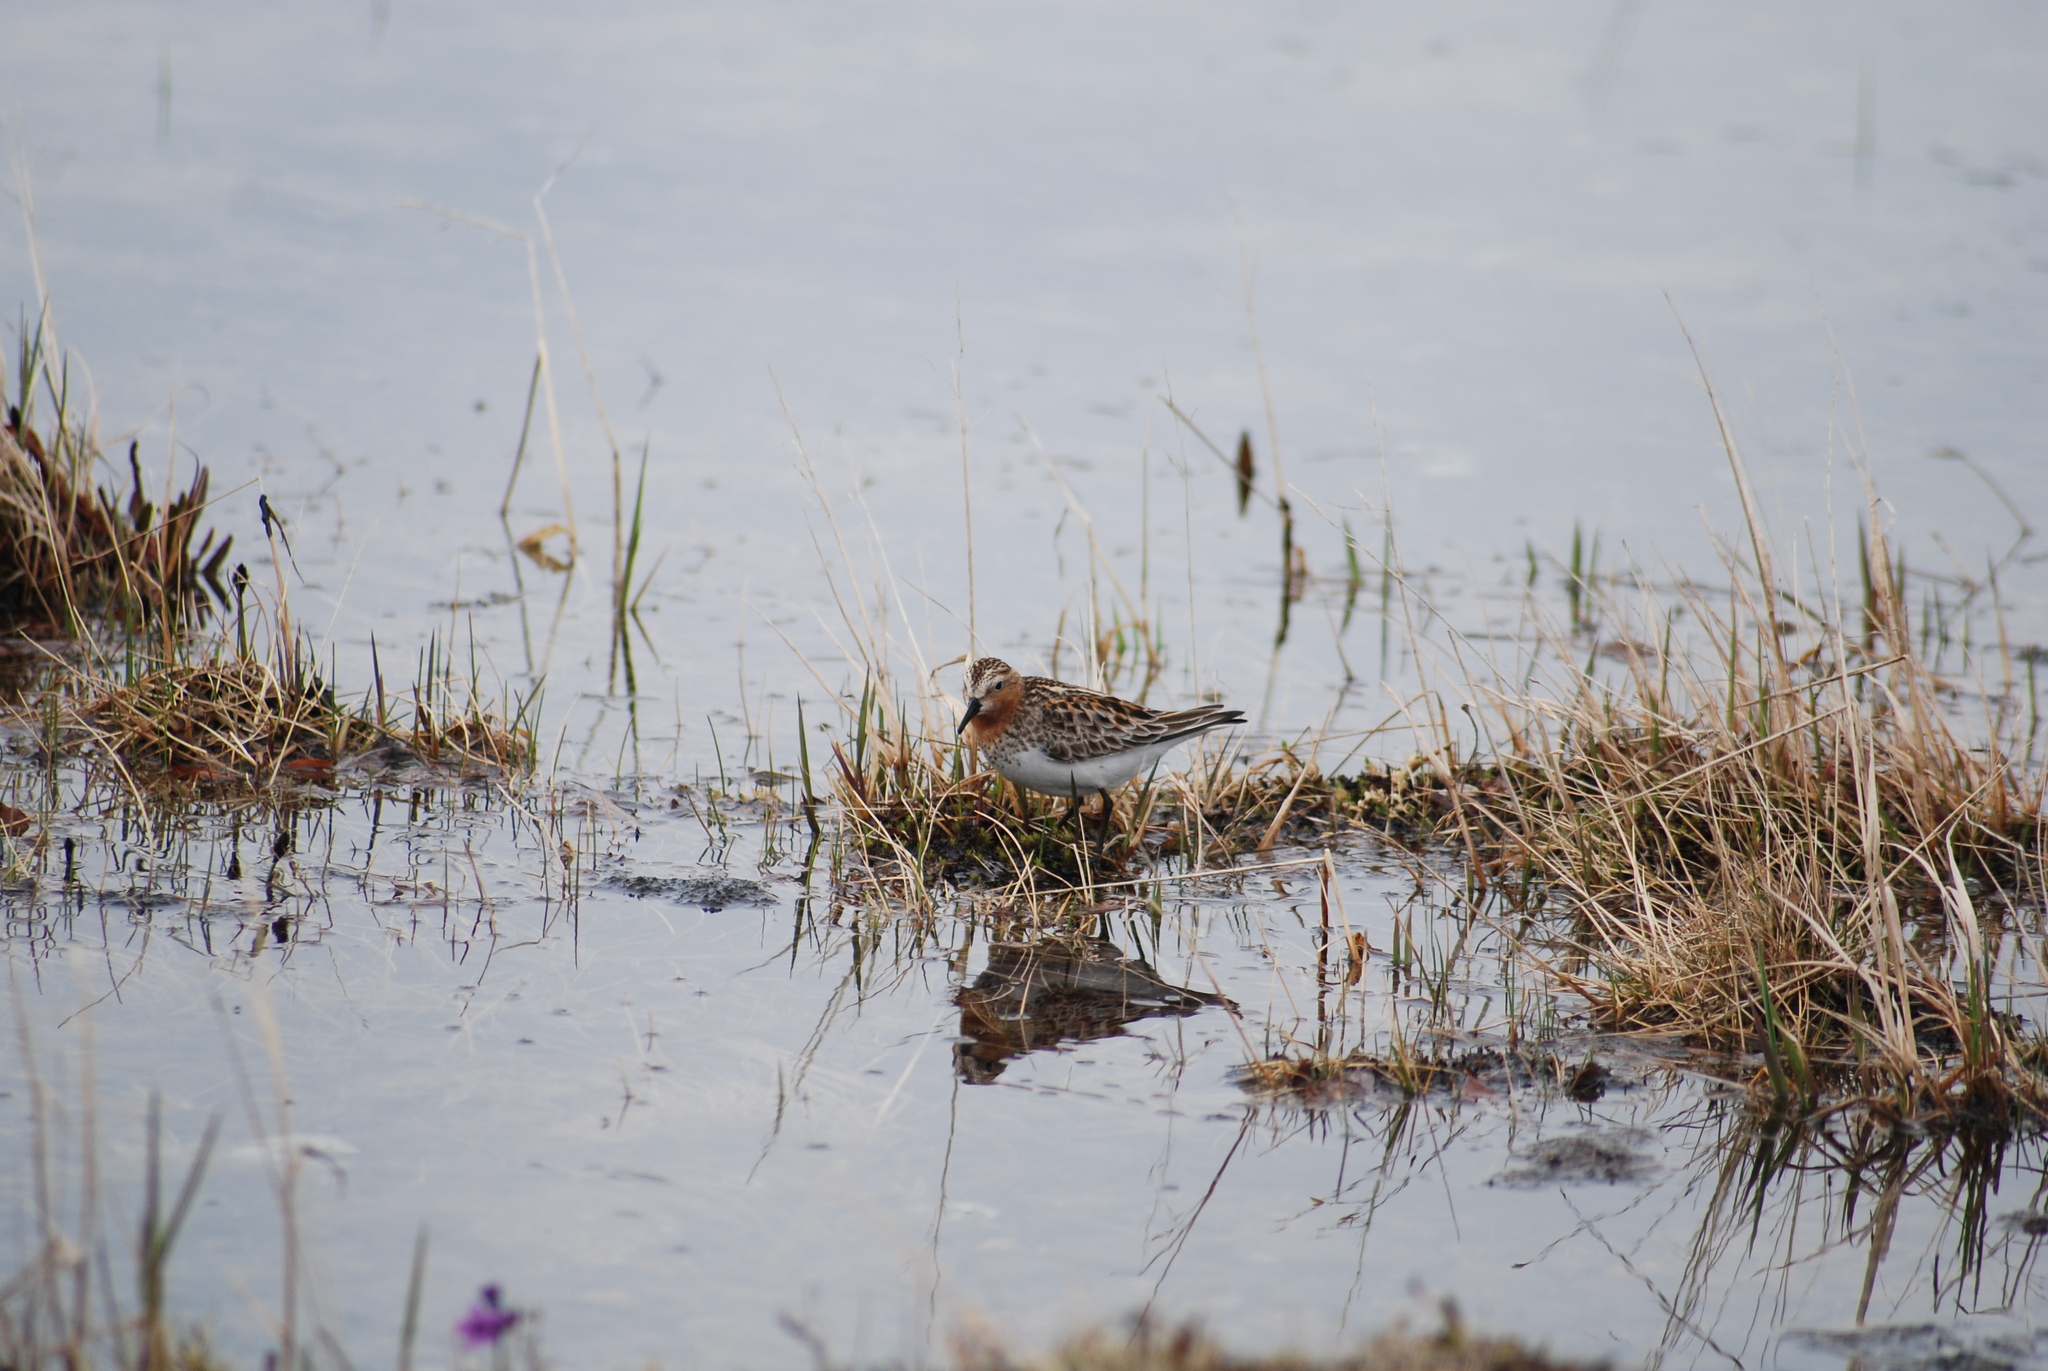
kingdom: Animalia
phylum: Chordata
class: Aves
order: Charadriiformes
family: Scolopacidae
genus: Calidris
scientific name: Calidris ruficollis
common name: Red-necked stint
